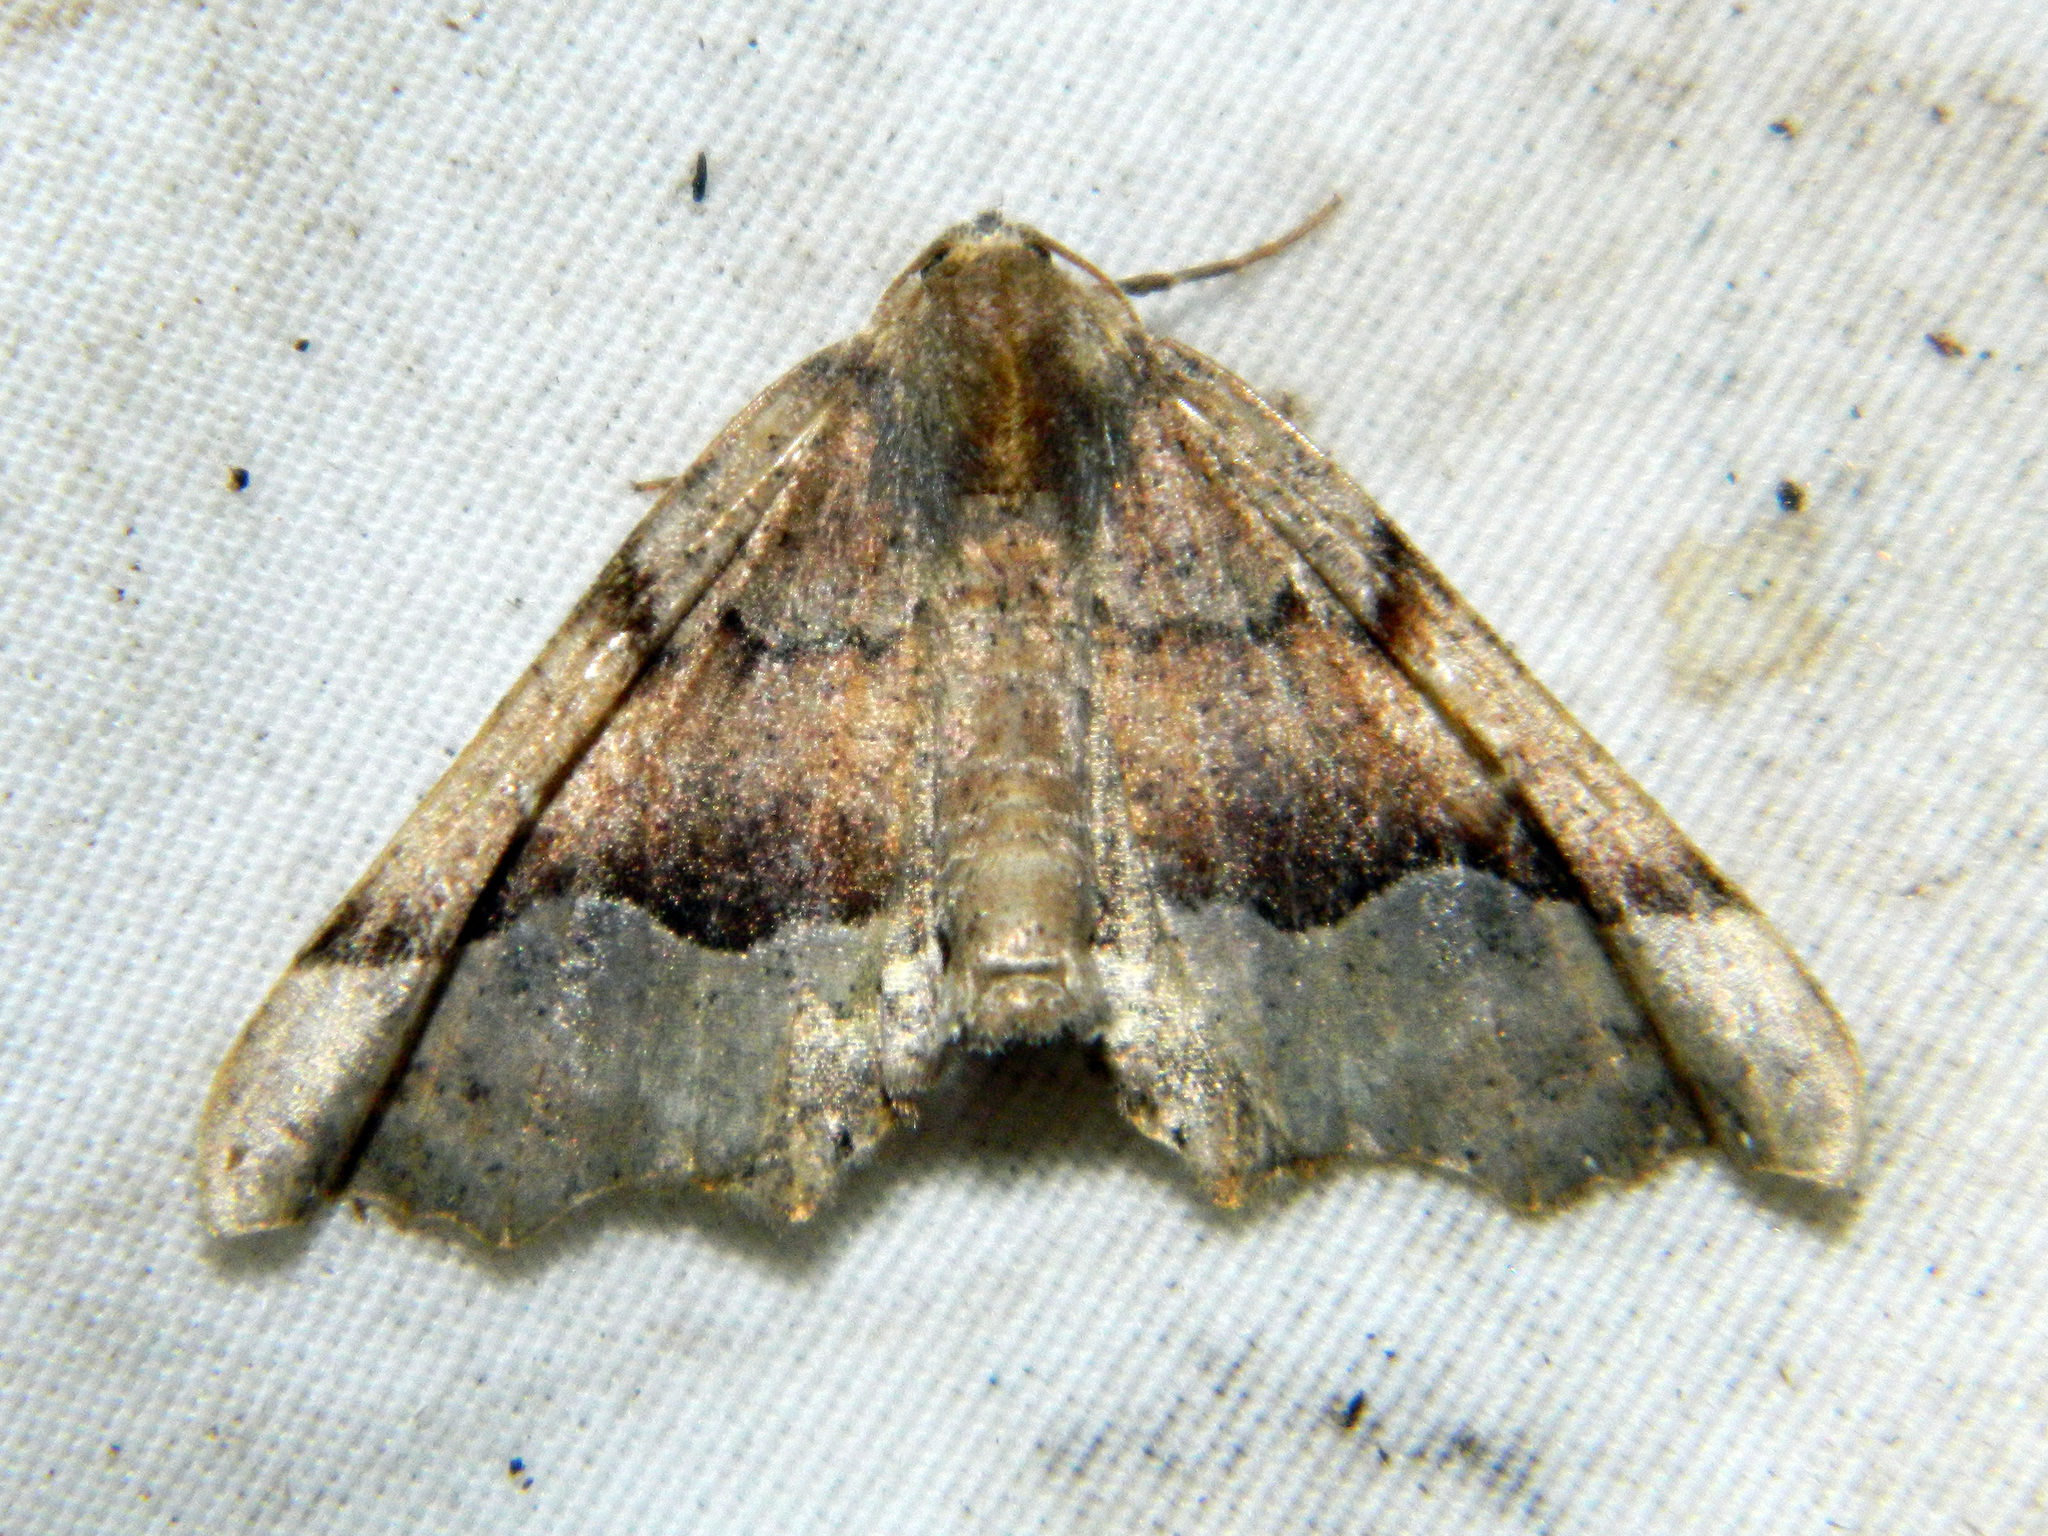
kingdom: Animalia
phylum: Arthropoda
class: Insecta
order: Lepidoptera
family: Geometridae
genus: Pero
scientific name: Pero morrisonaria
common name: Morrison's pero
